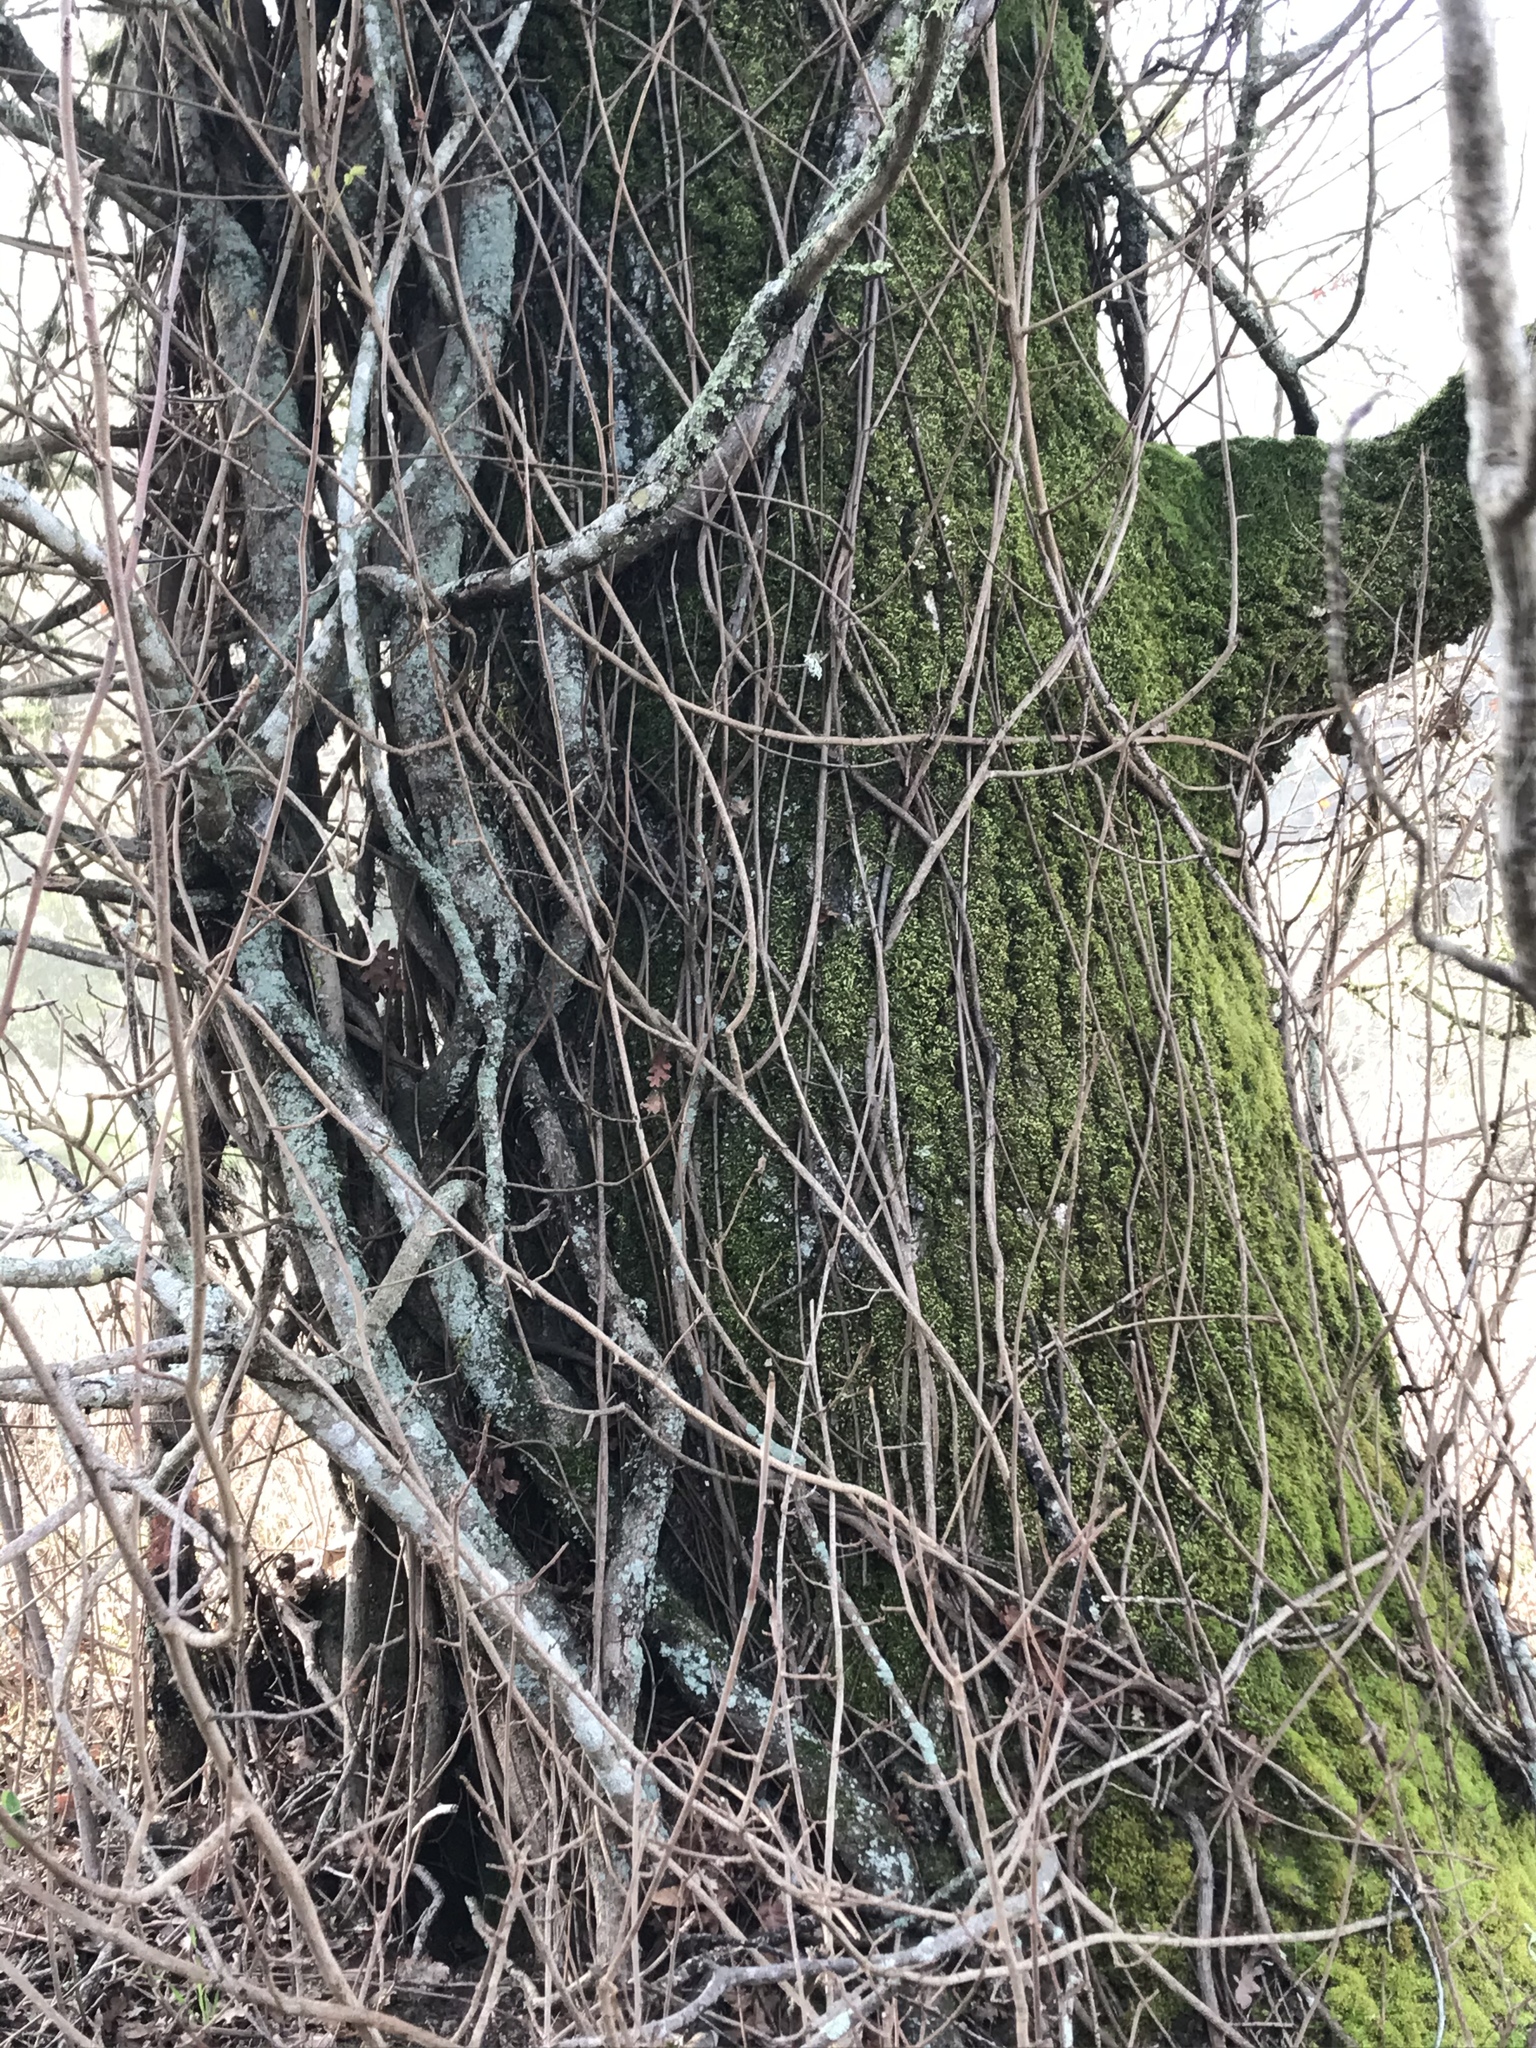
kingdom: Plantae
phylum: Tracheophyta
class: Magnoliopsida
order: Sapindales
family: Anacardiaceae
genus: Toxicodendron
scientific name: Toxicodendron diversilobum
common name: Pacific poison-oak
